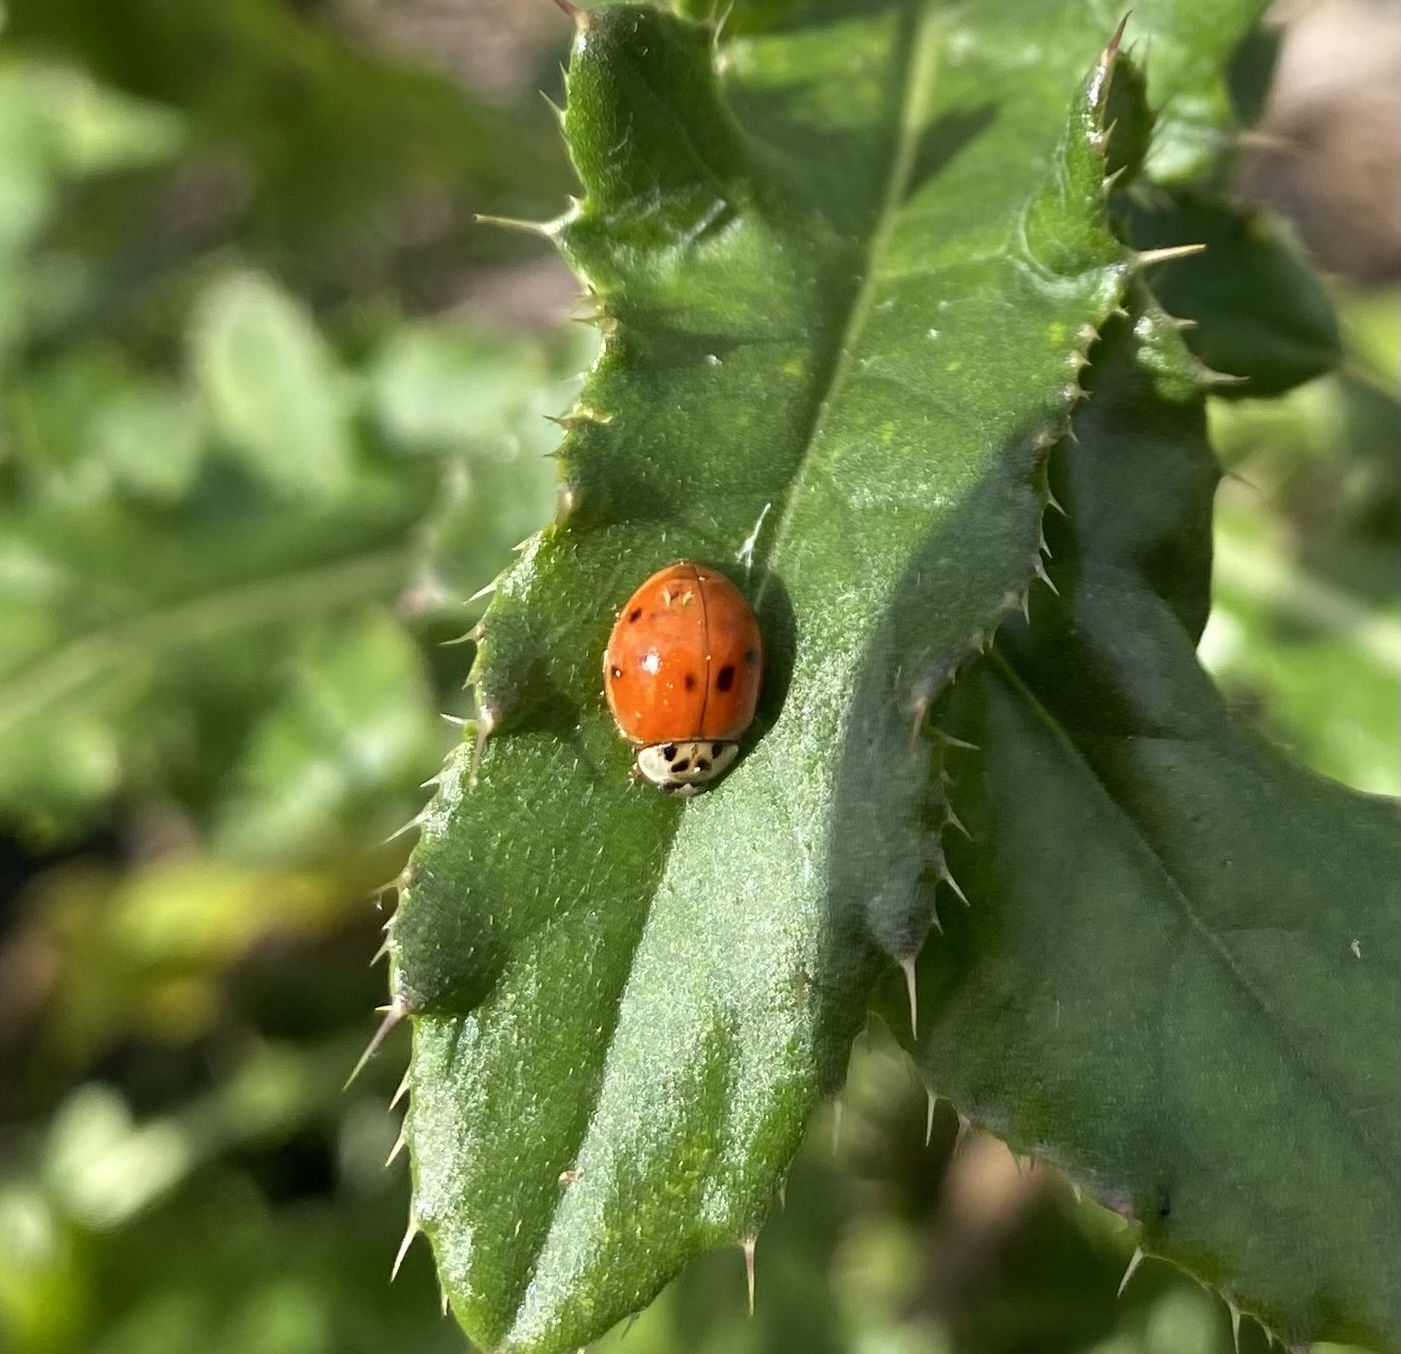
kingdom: Animalia
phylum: Arthropoda
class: Insecta
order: Coleoptera
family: Coccinellidae
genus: Harmonia
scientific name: Harmonia axyridis
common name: Harlequin ladybird
